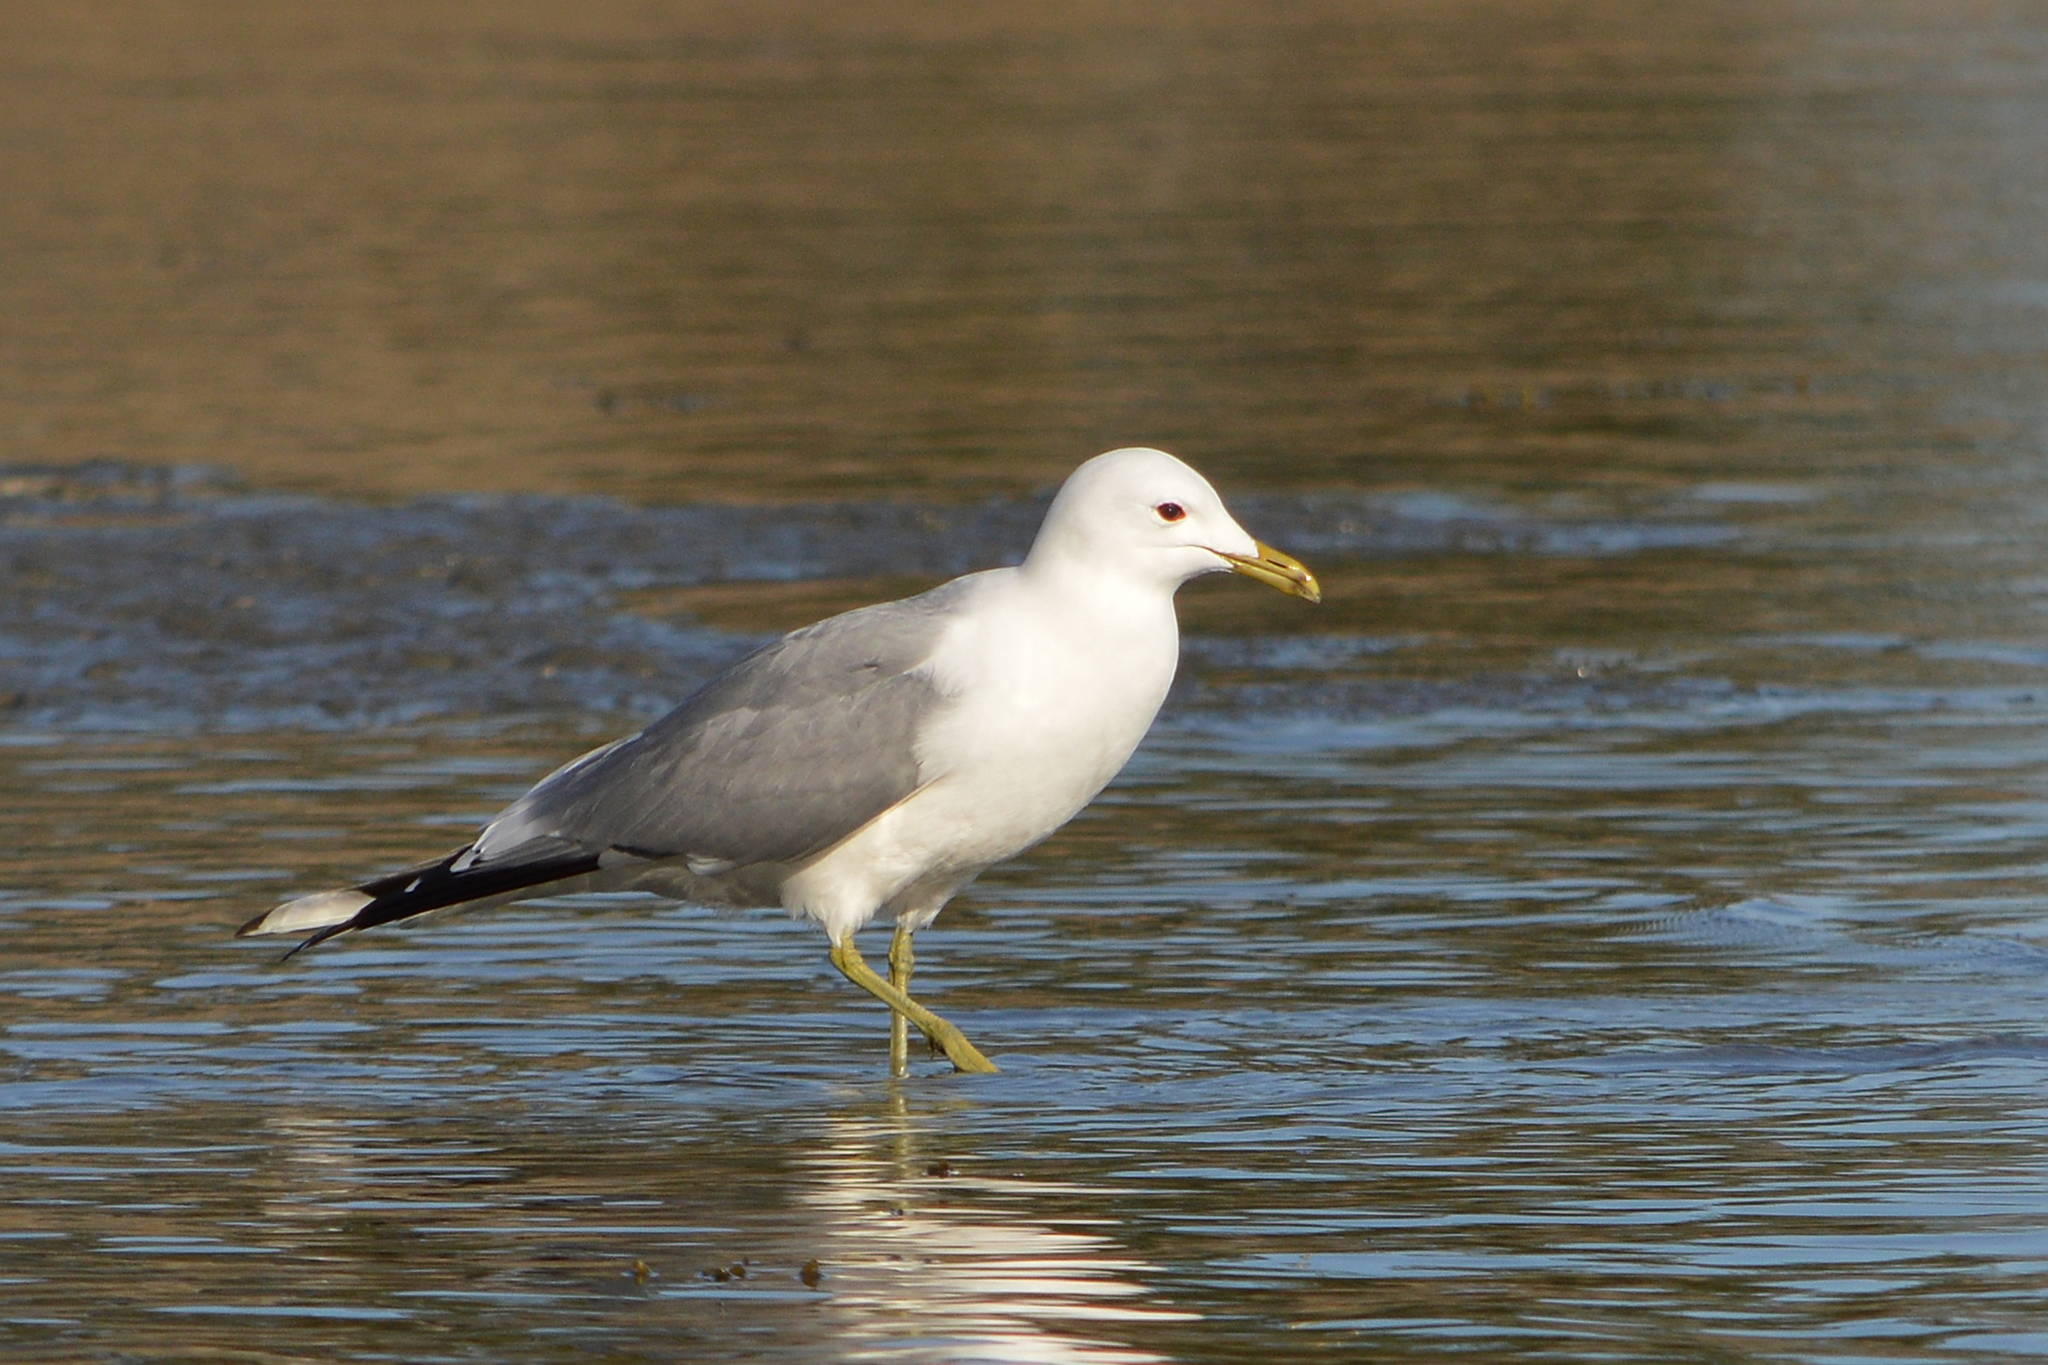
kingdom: Animalia
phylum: Chordata
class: Aves
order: Charadriiformes
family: Laridae
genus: Larus
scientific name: Larus canus
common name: Mew gull
